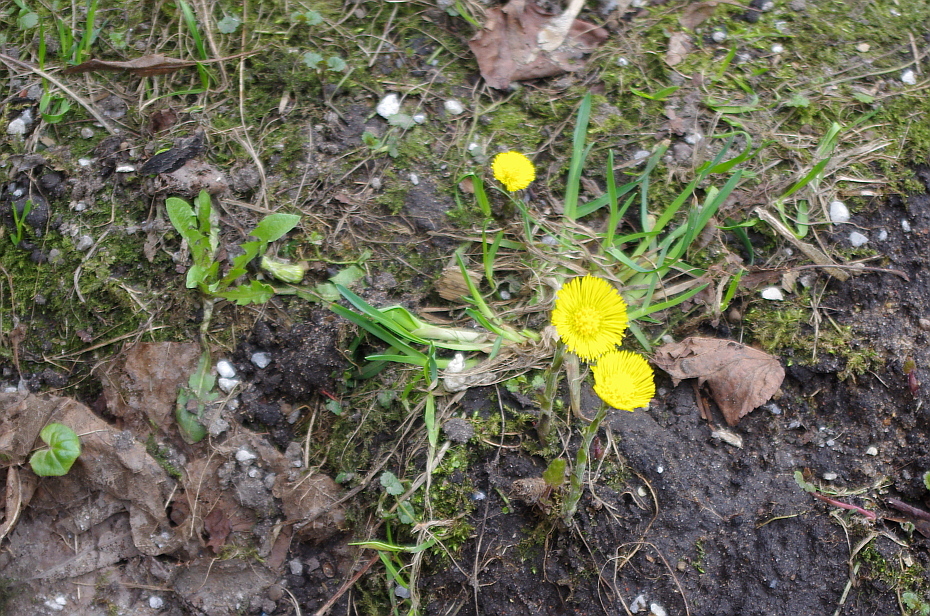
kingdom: Plantae
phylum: Tracheophyta
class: Magnoliopsida
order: Asterales
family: Asteraceae
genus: Tussilago
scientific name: Tussilago farfara
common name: Coltsfoot
